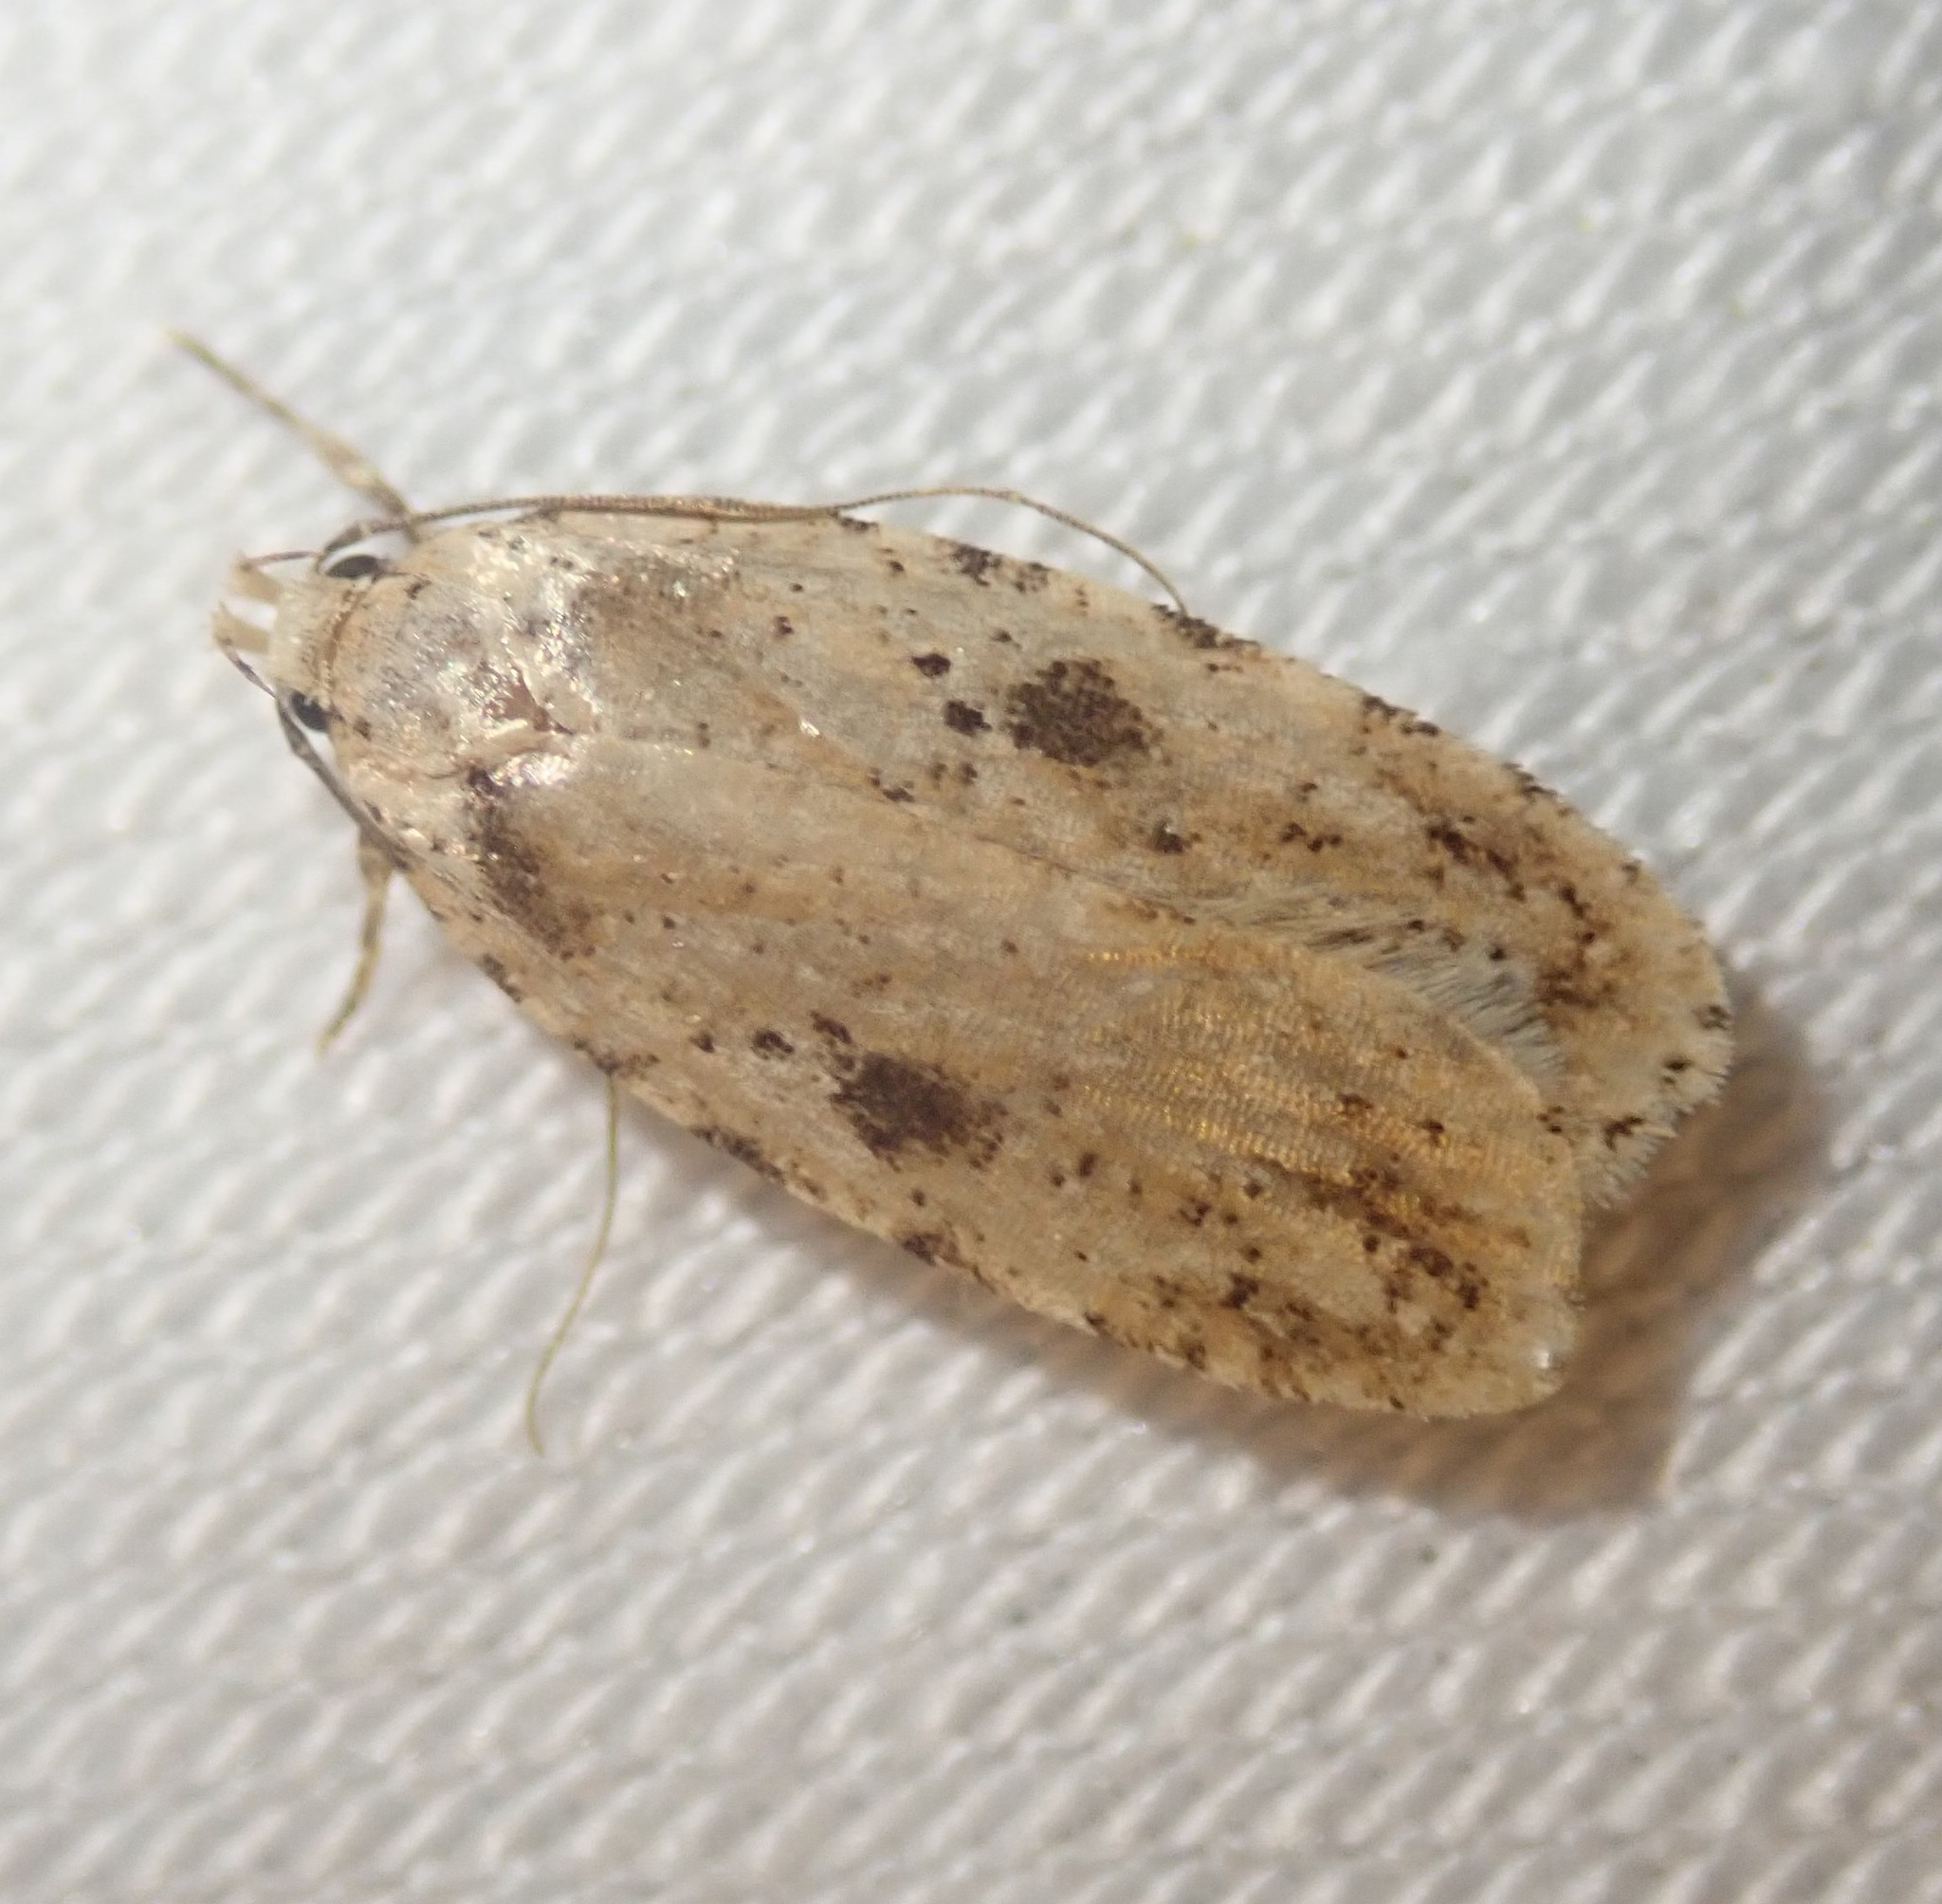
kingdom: Animalia
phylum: Arthropoda
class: Insecta
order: Lepidoptera
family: Depressariidae
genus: Agonopterix
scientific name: Agonopterix arenella
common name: Brindled flat-body
